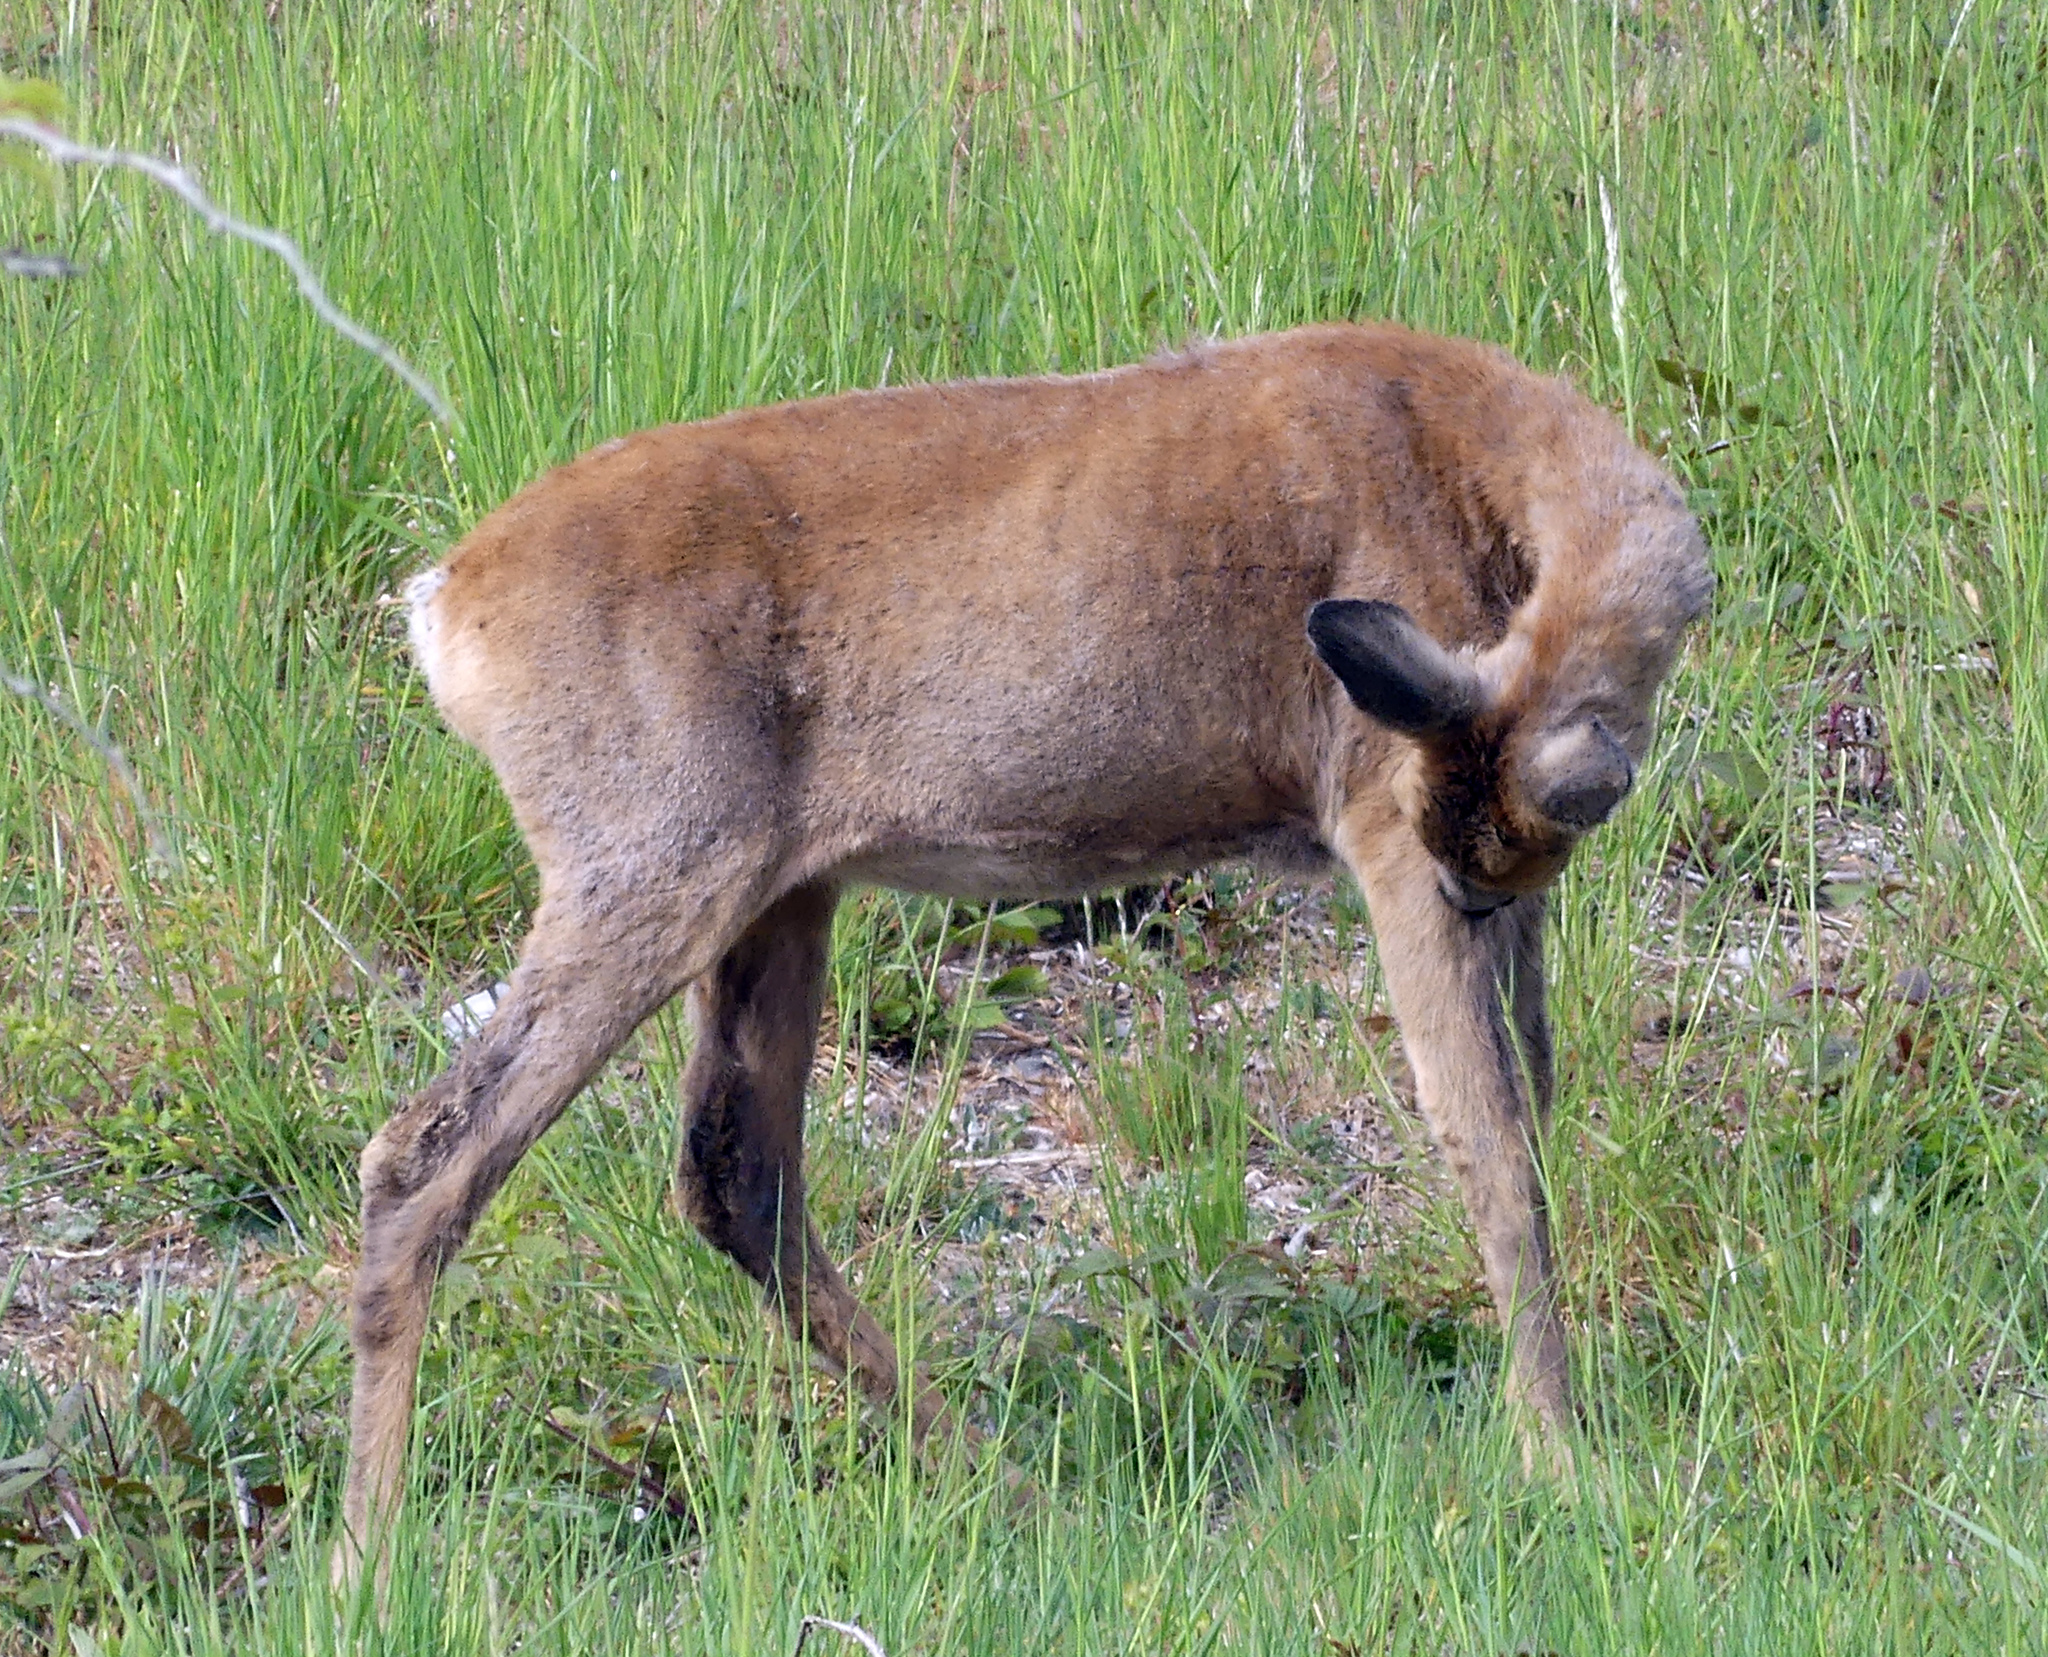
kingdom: Animalia
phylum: Chordata
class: Mammalia
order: Artiodactyla
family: Cervidae
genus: Capreolus
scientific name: Capreolus capreolus
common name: Western roe deer
